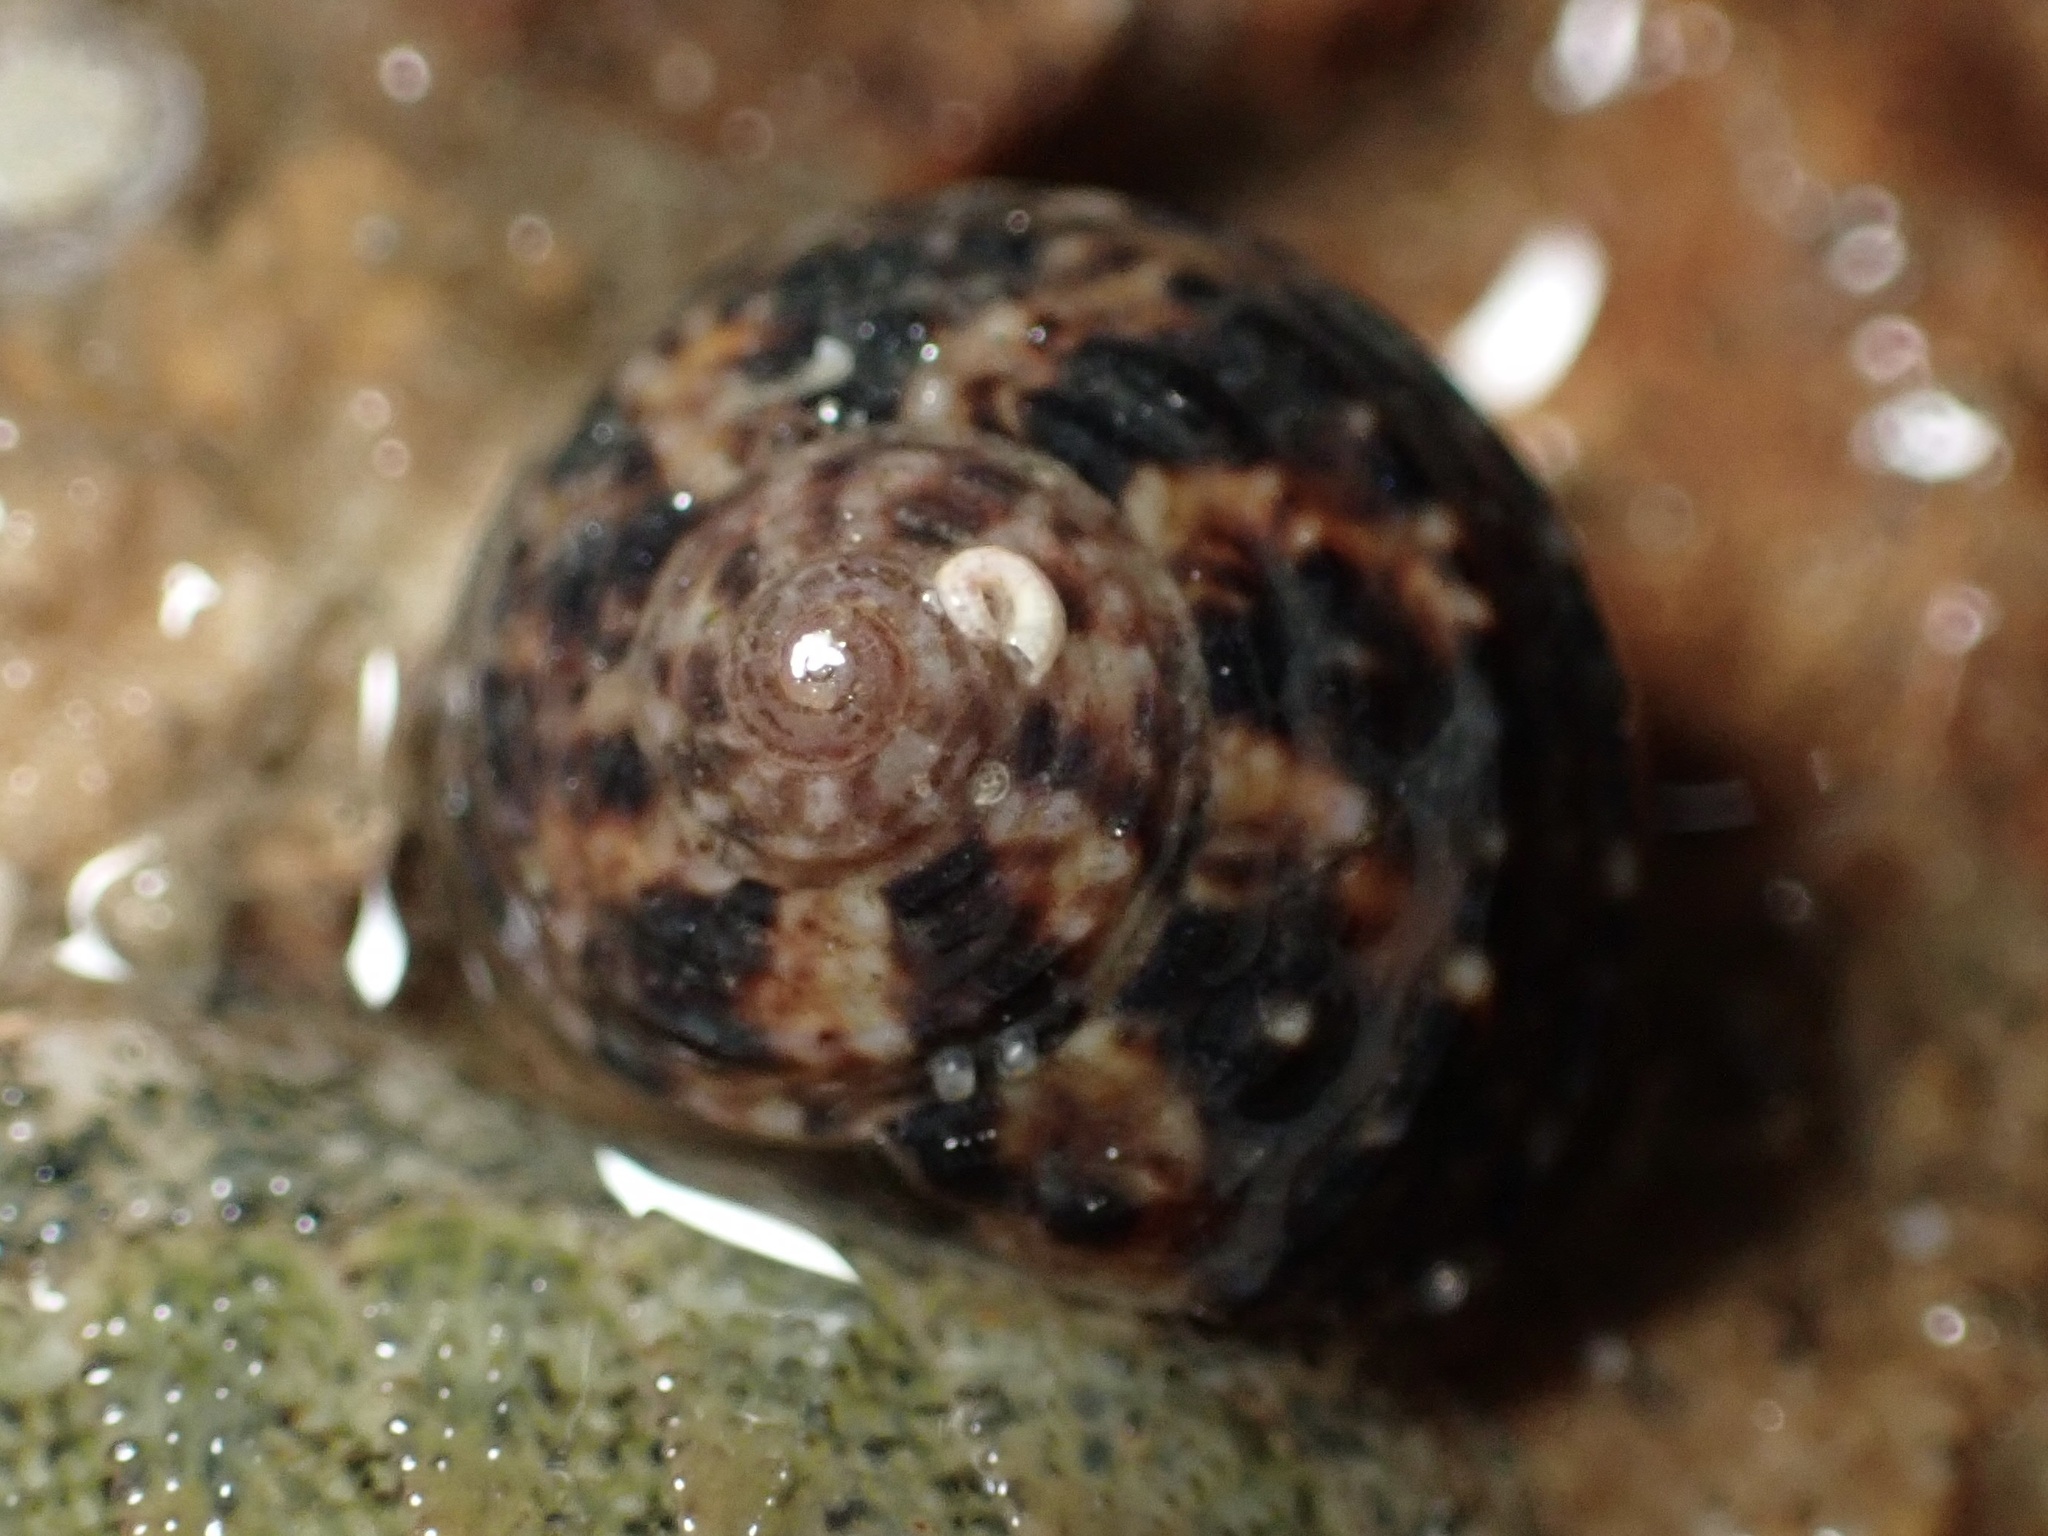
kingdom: Animalia
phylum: Mollusca
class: Gastropoda
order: Trochida
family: Tegulidae
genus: Tegula
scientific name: Tegula eiseni
